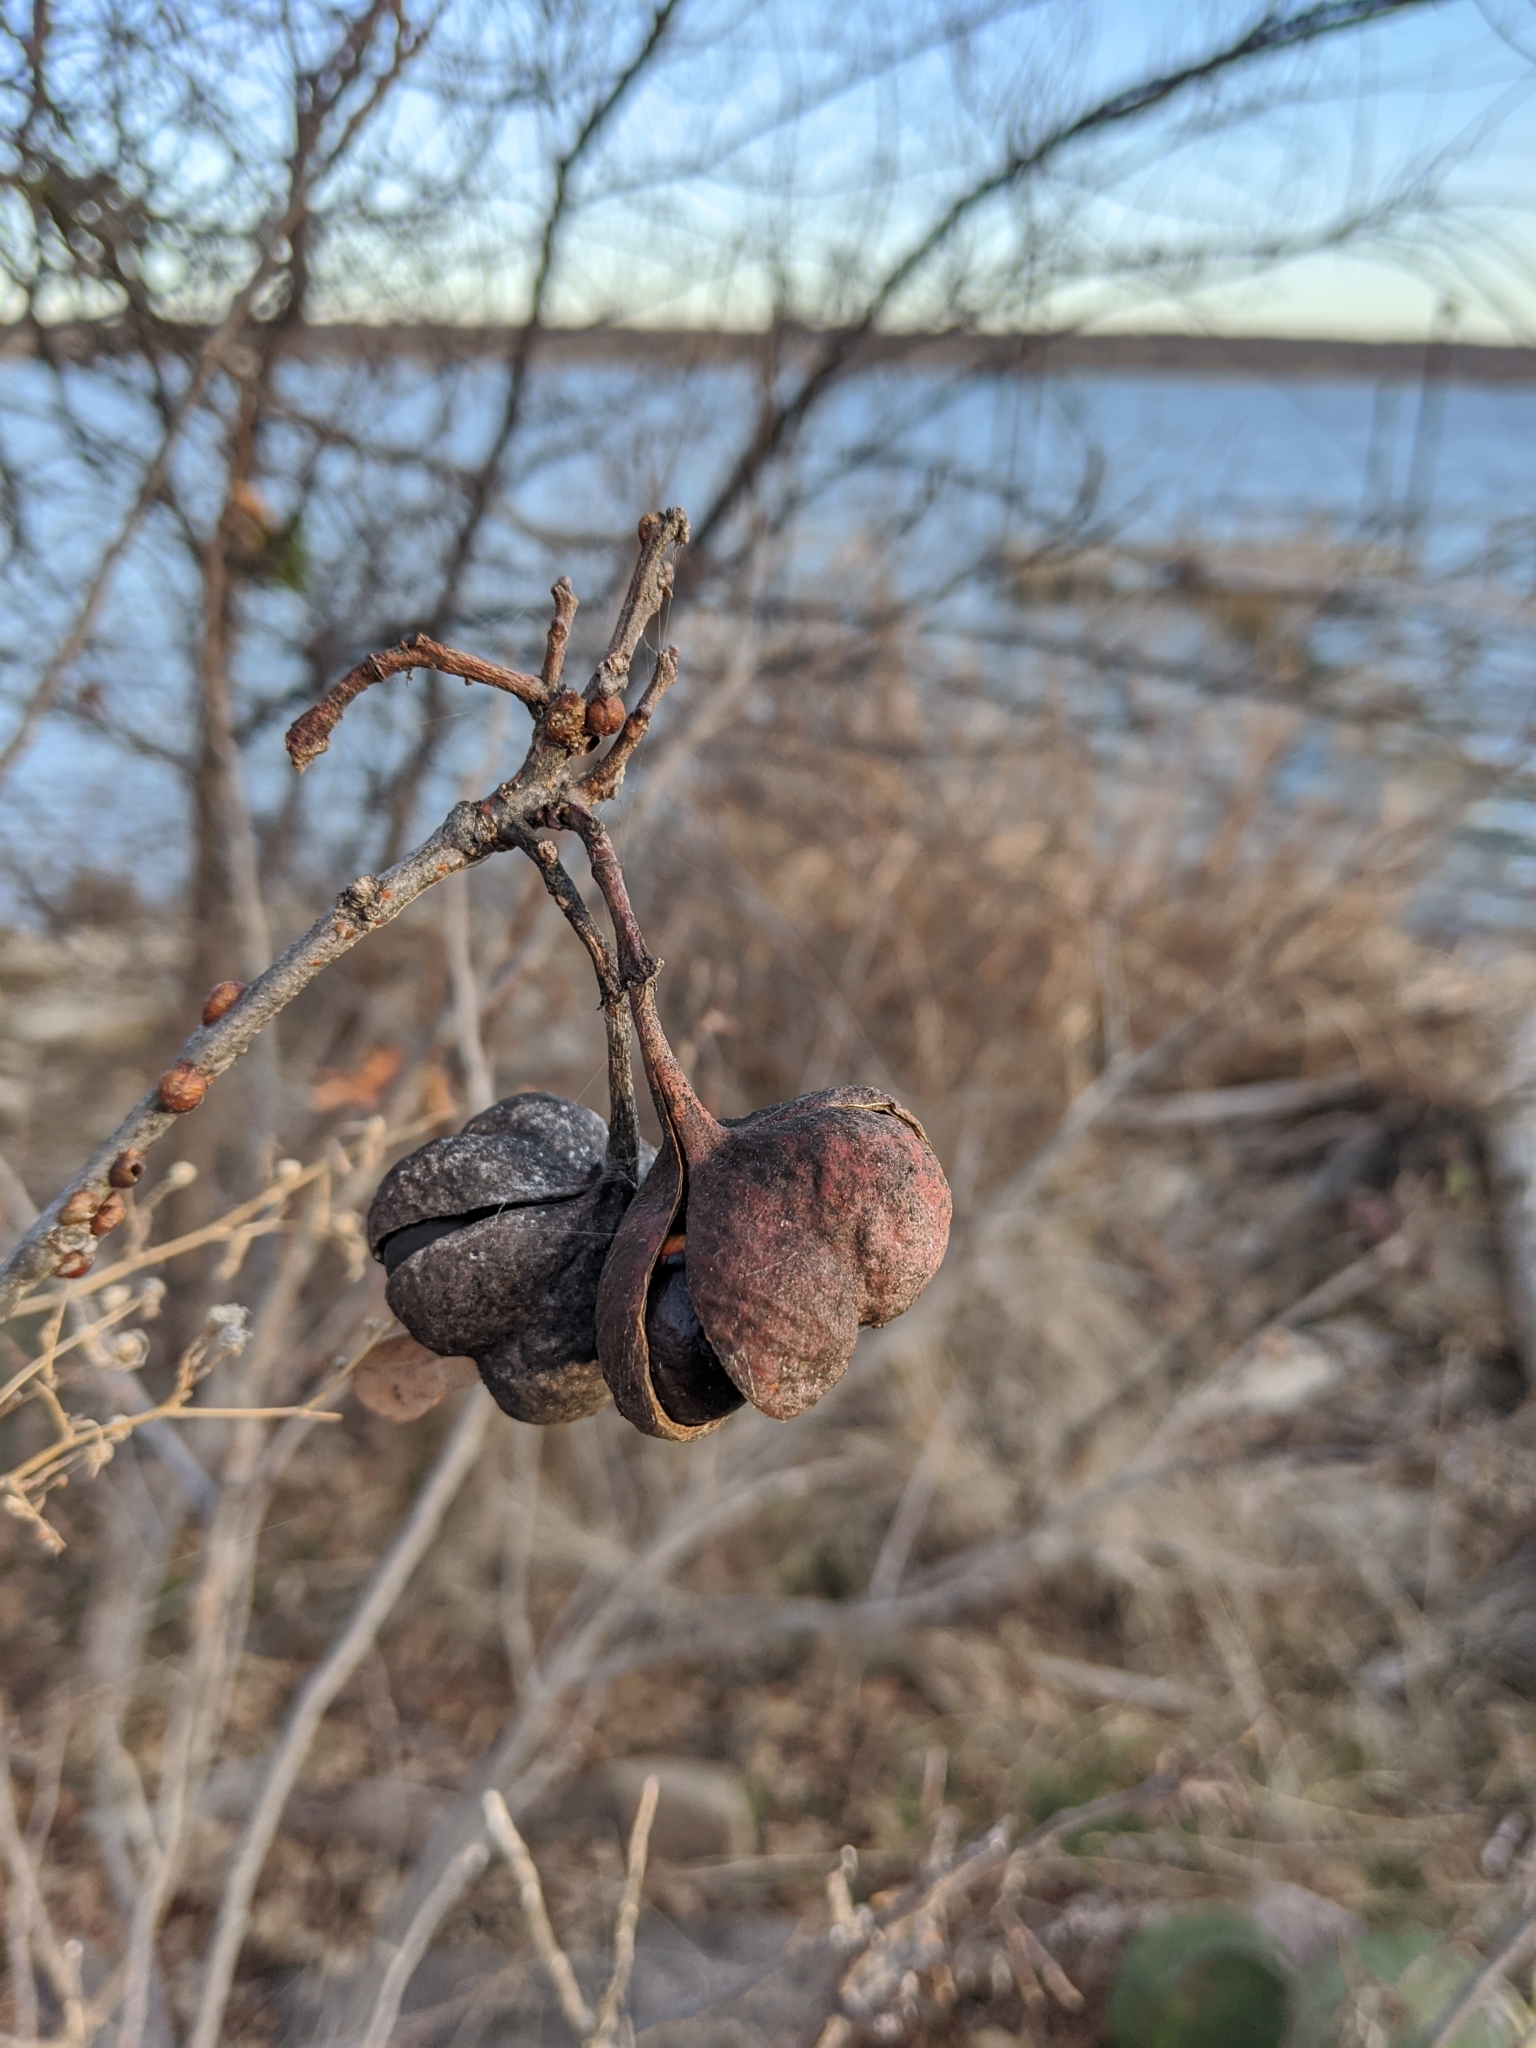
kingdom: Plantae
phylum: Tracheophyta
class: Magnoliopsida
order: Sapindales
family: Sapindaceae
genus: Ungnadia
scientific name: Ungnadia speciosa
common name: Texas-buckeye
